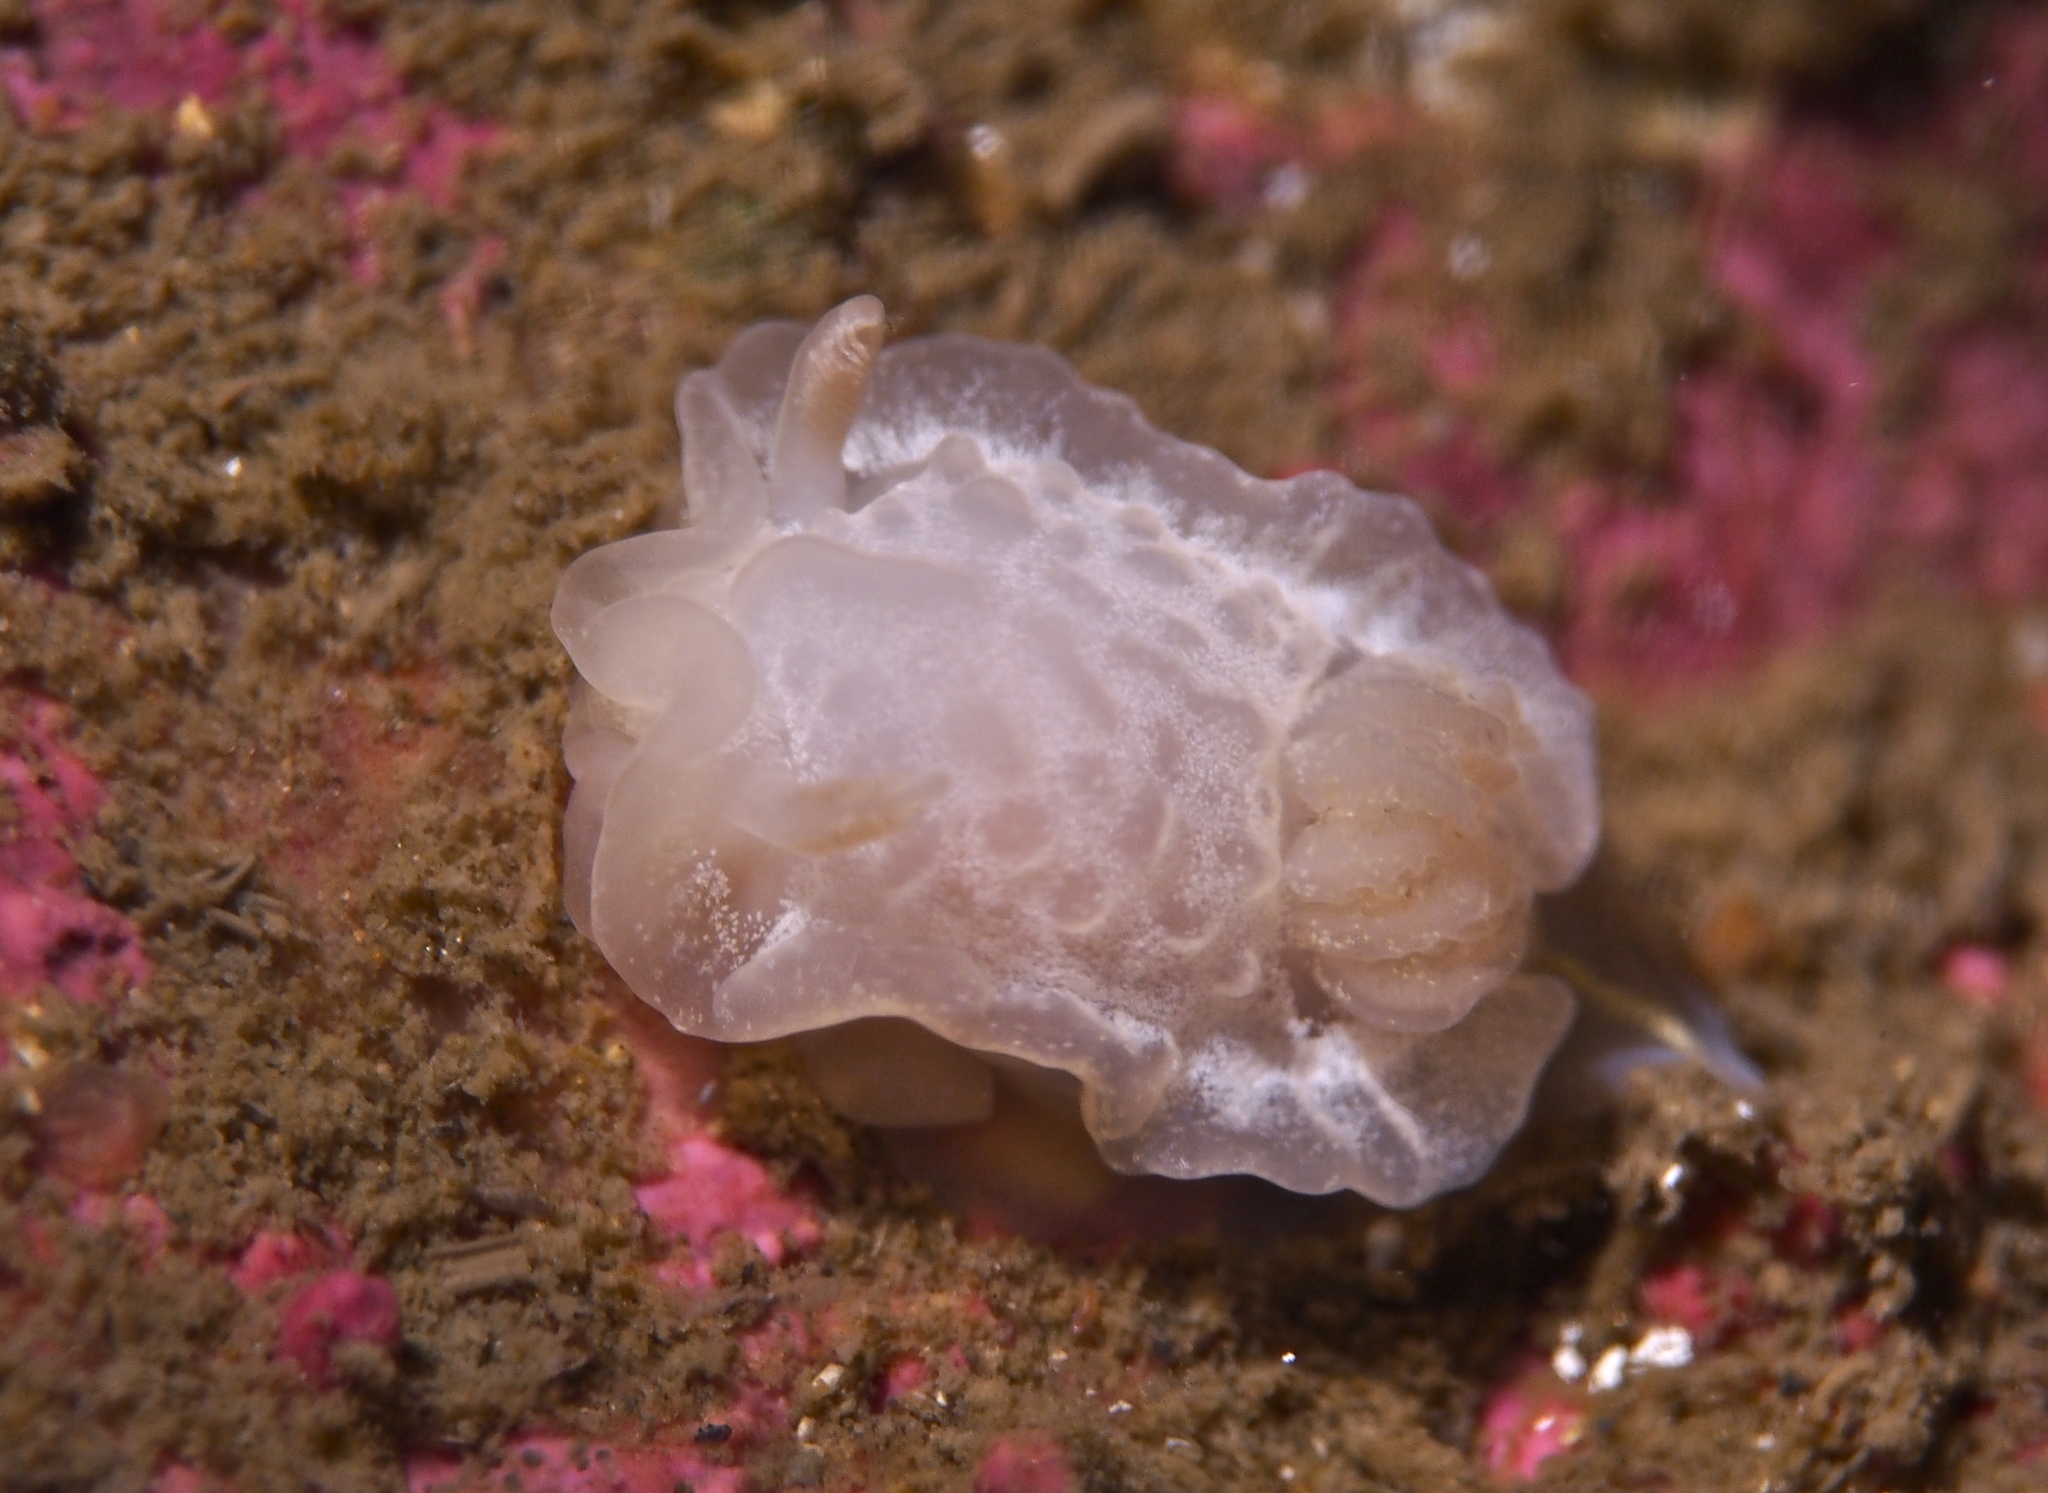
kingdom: Animalia
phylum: Mollusca
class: Gastropoda
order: Nudibranchia
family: Goniodorididae
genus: Okenia
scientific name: Okenia
